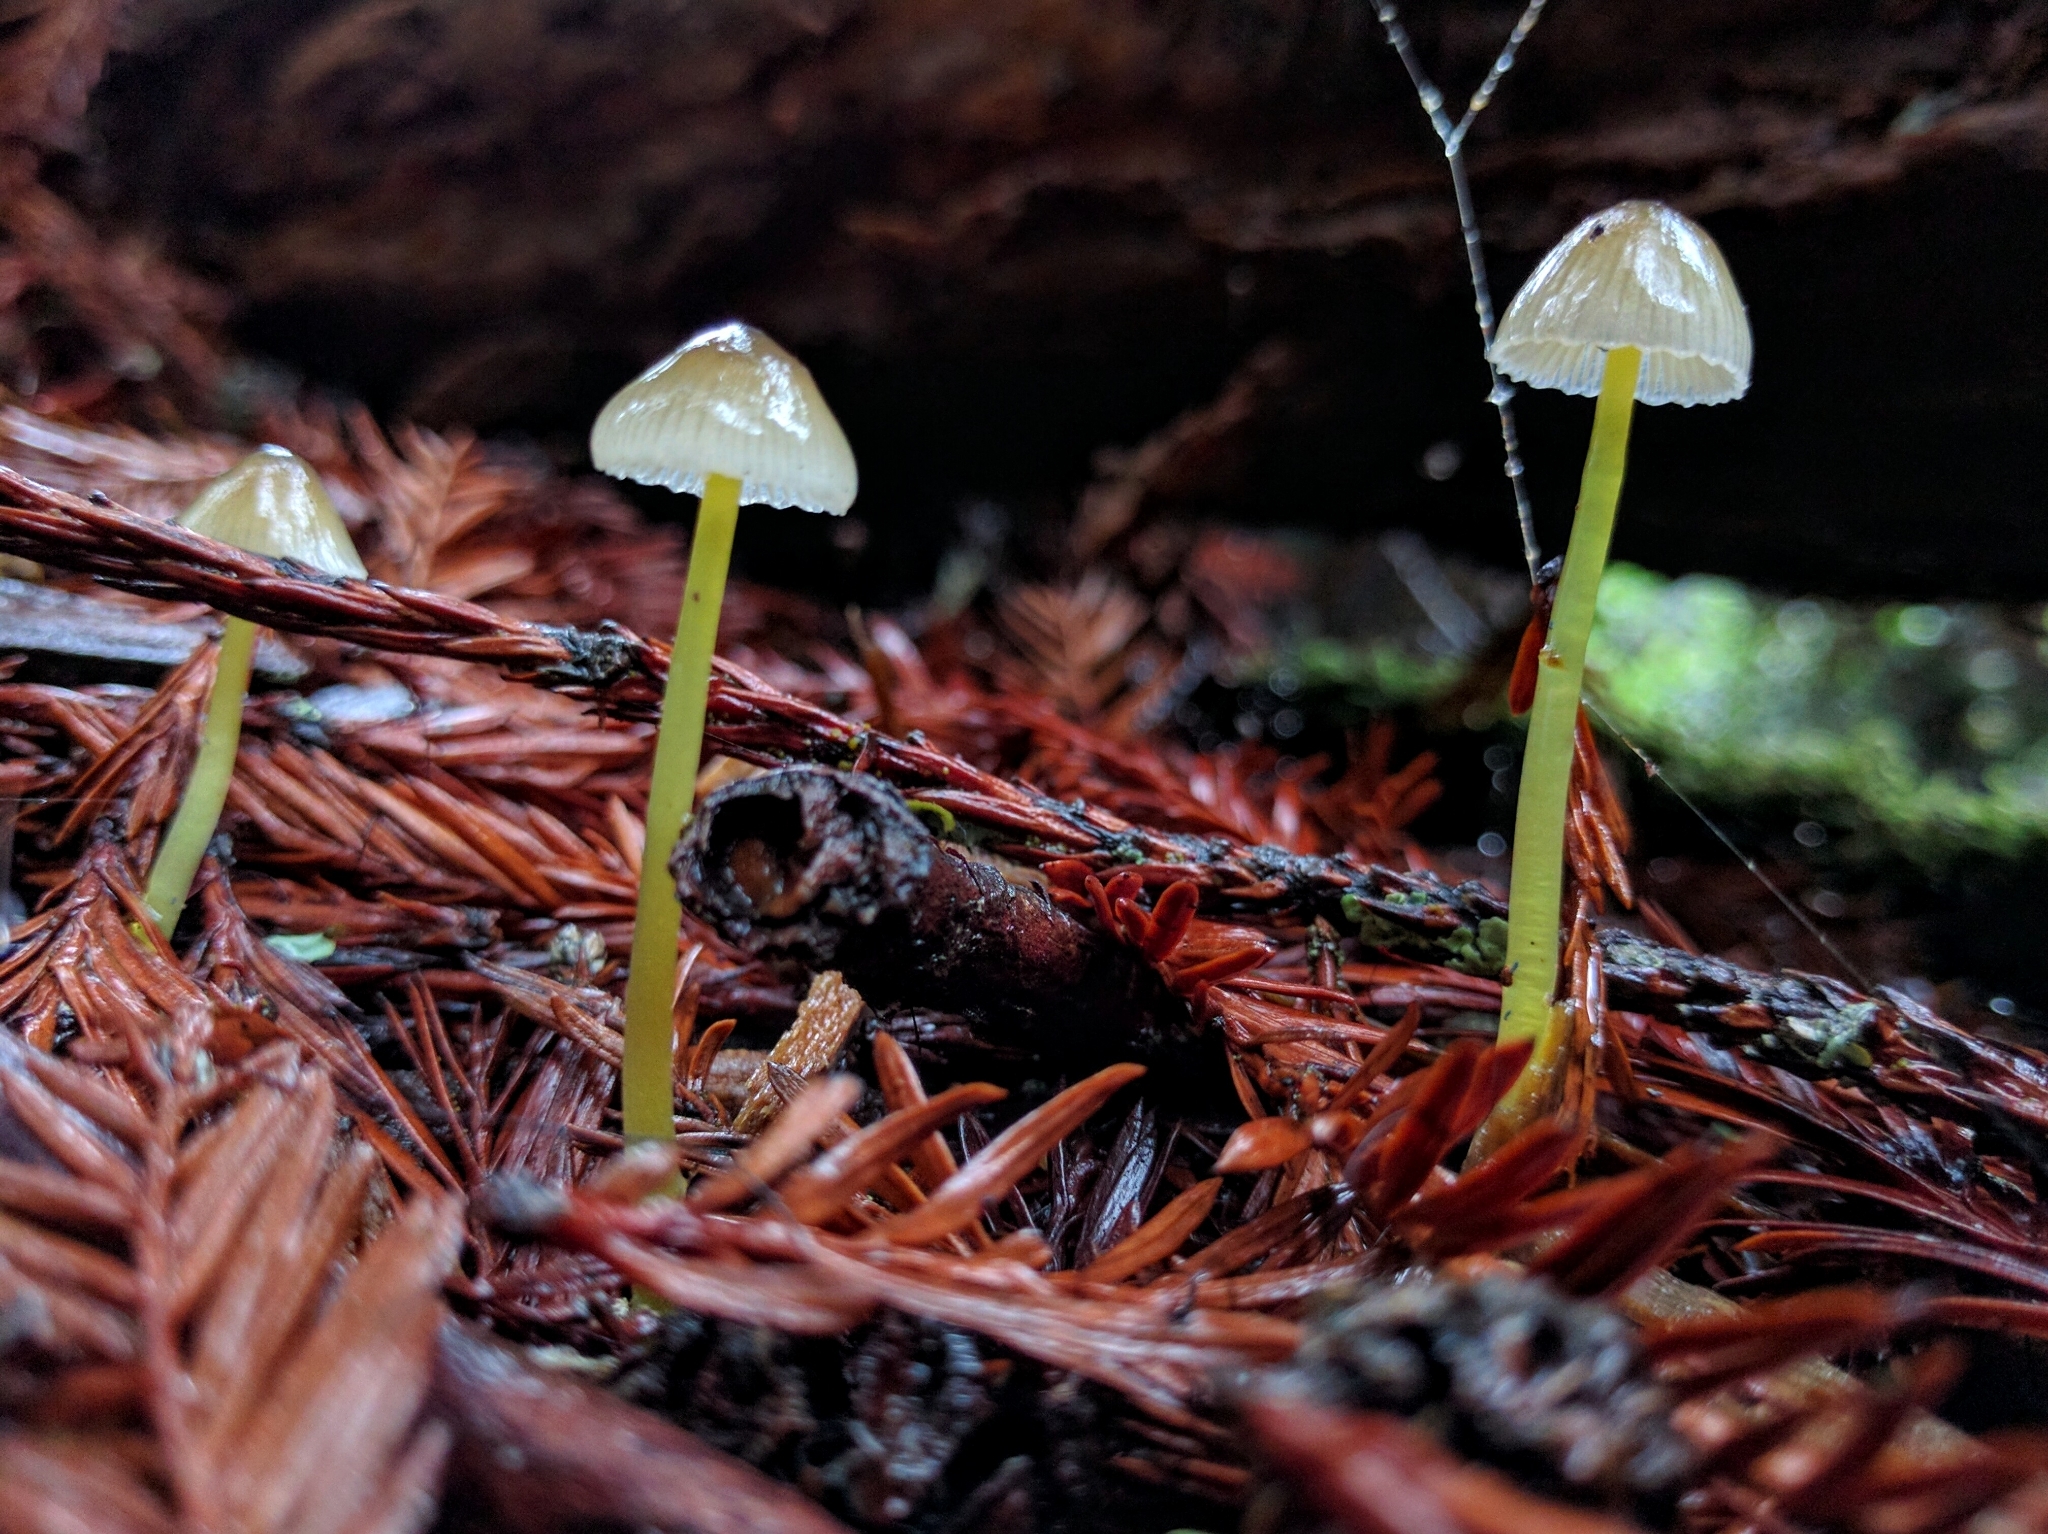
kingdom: Fungi
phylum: Basidiomycota
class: Agaricomycetes
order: Agaricales
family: Mycenaceae
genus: Mycena
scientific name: Mycena epipterygia
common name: Yellowleg bonnet
